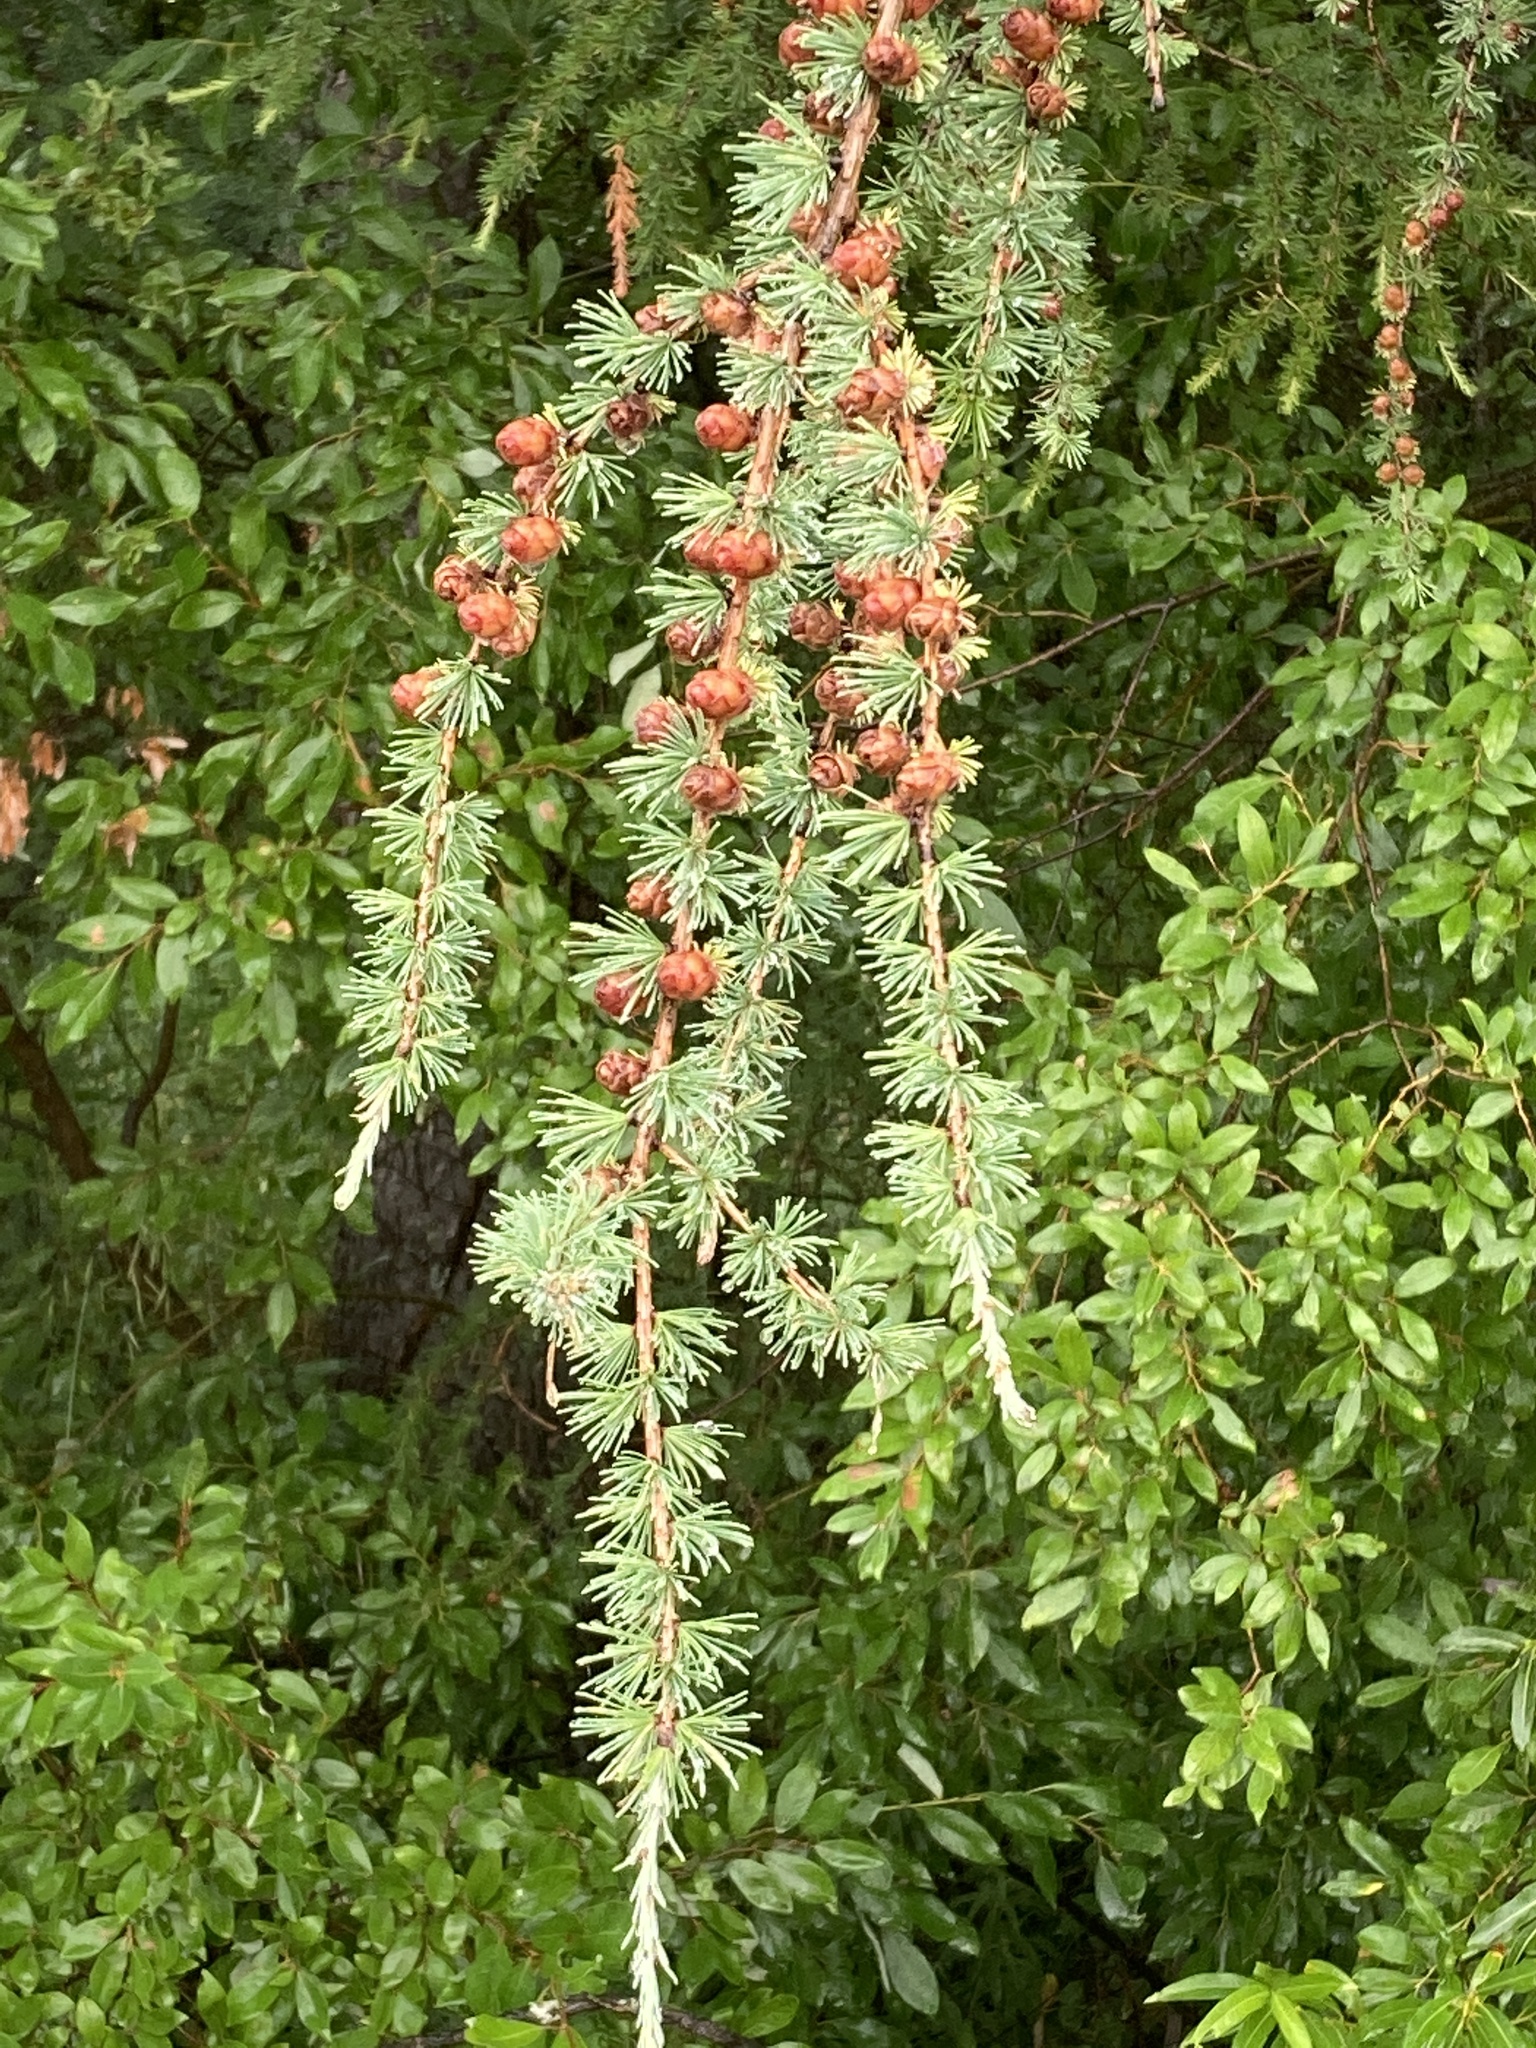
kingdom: Plantae
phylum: Tracheophyta
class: Pinopsida
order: Pinales
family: Pinaceae
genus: Larix
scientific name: Larix laricina
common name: American larch
